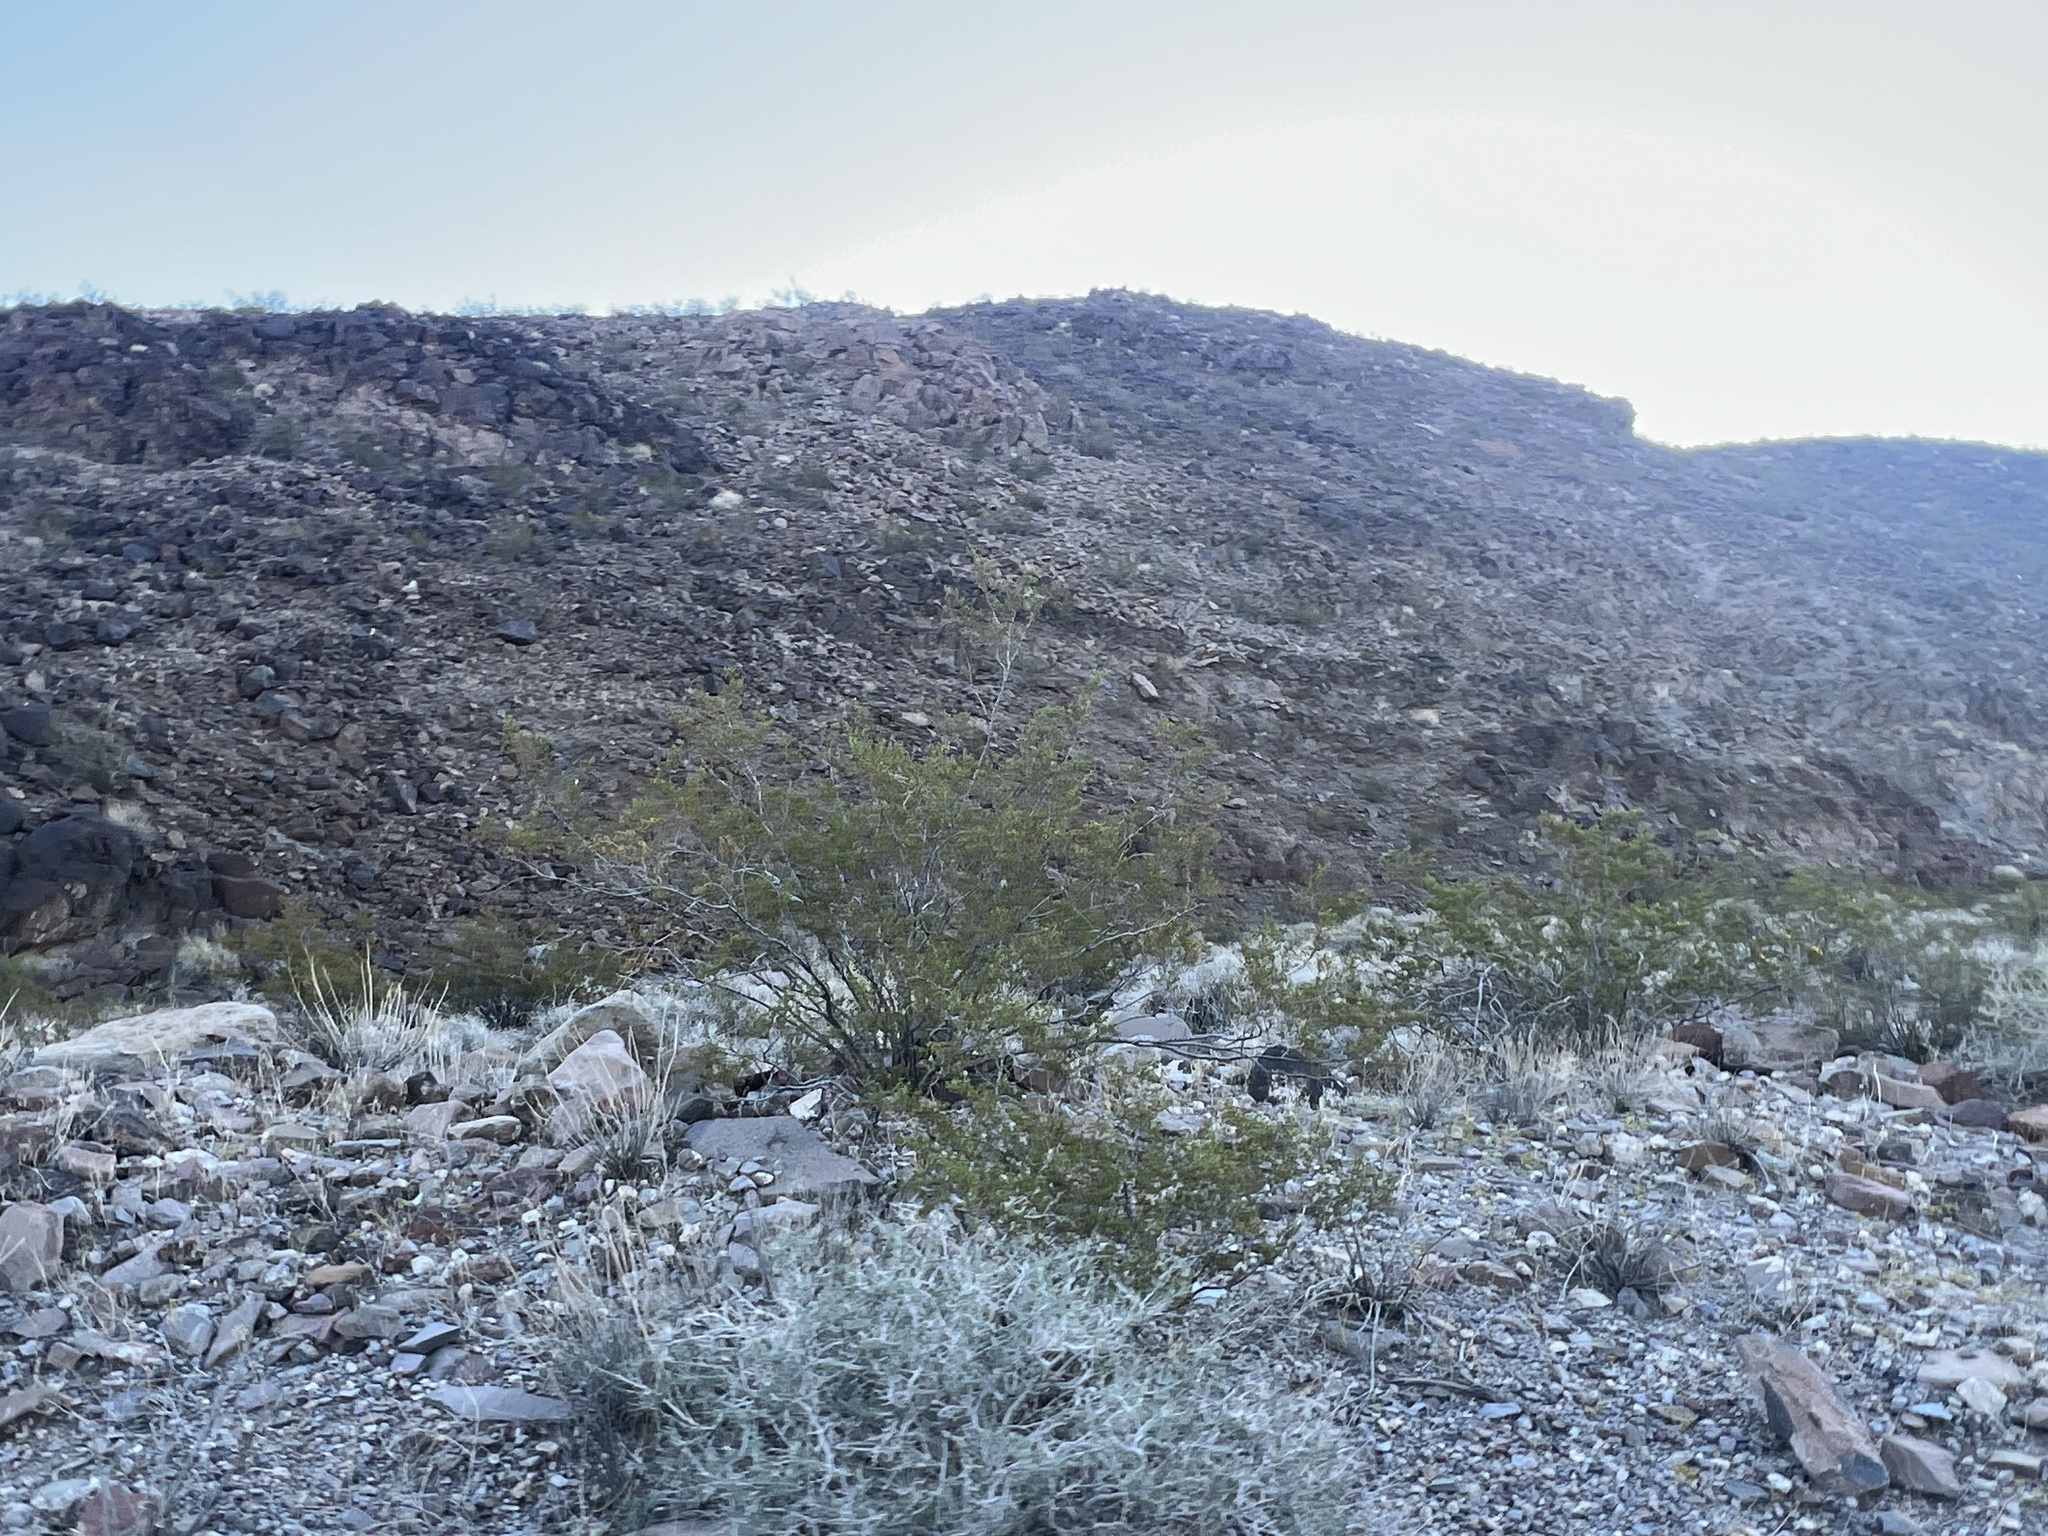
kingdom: Plantae
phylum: Tracheophyta
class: Magnoliopsida
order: Zygophyllales
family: Zygophyllaceae
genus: Larrea
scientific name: Larrea tridentata
